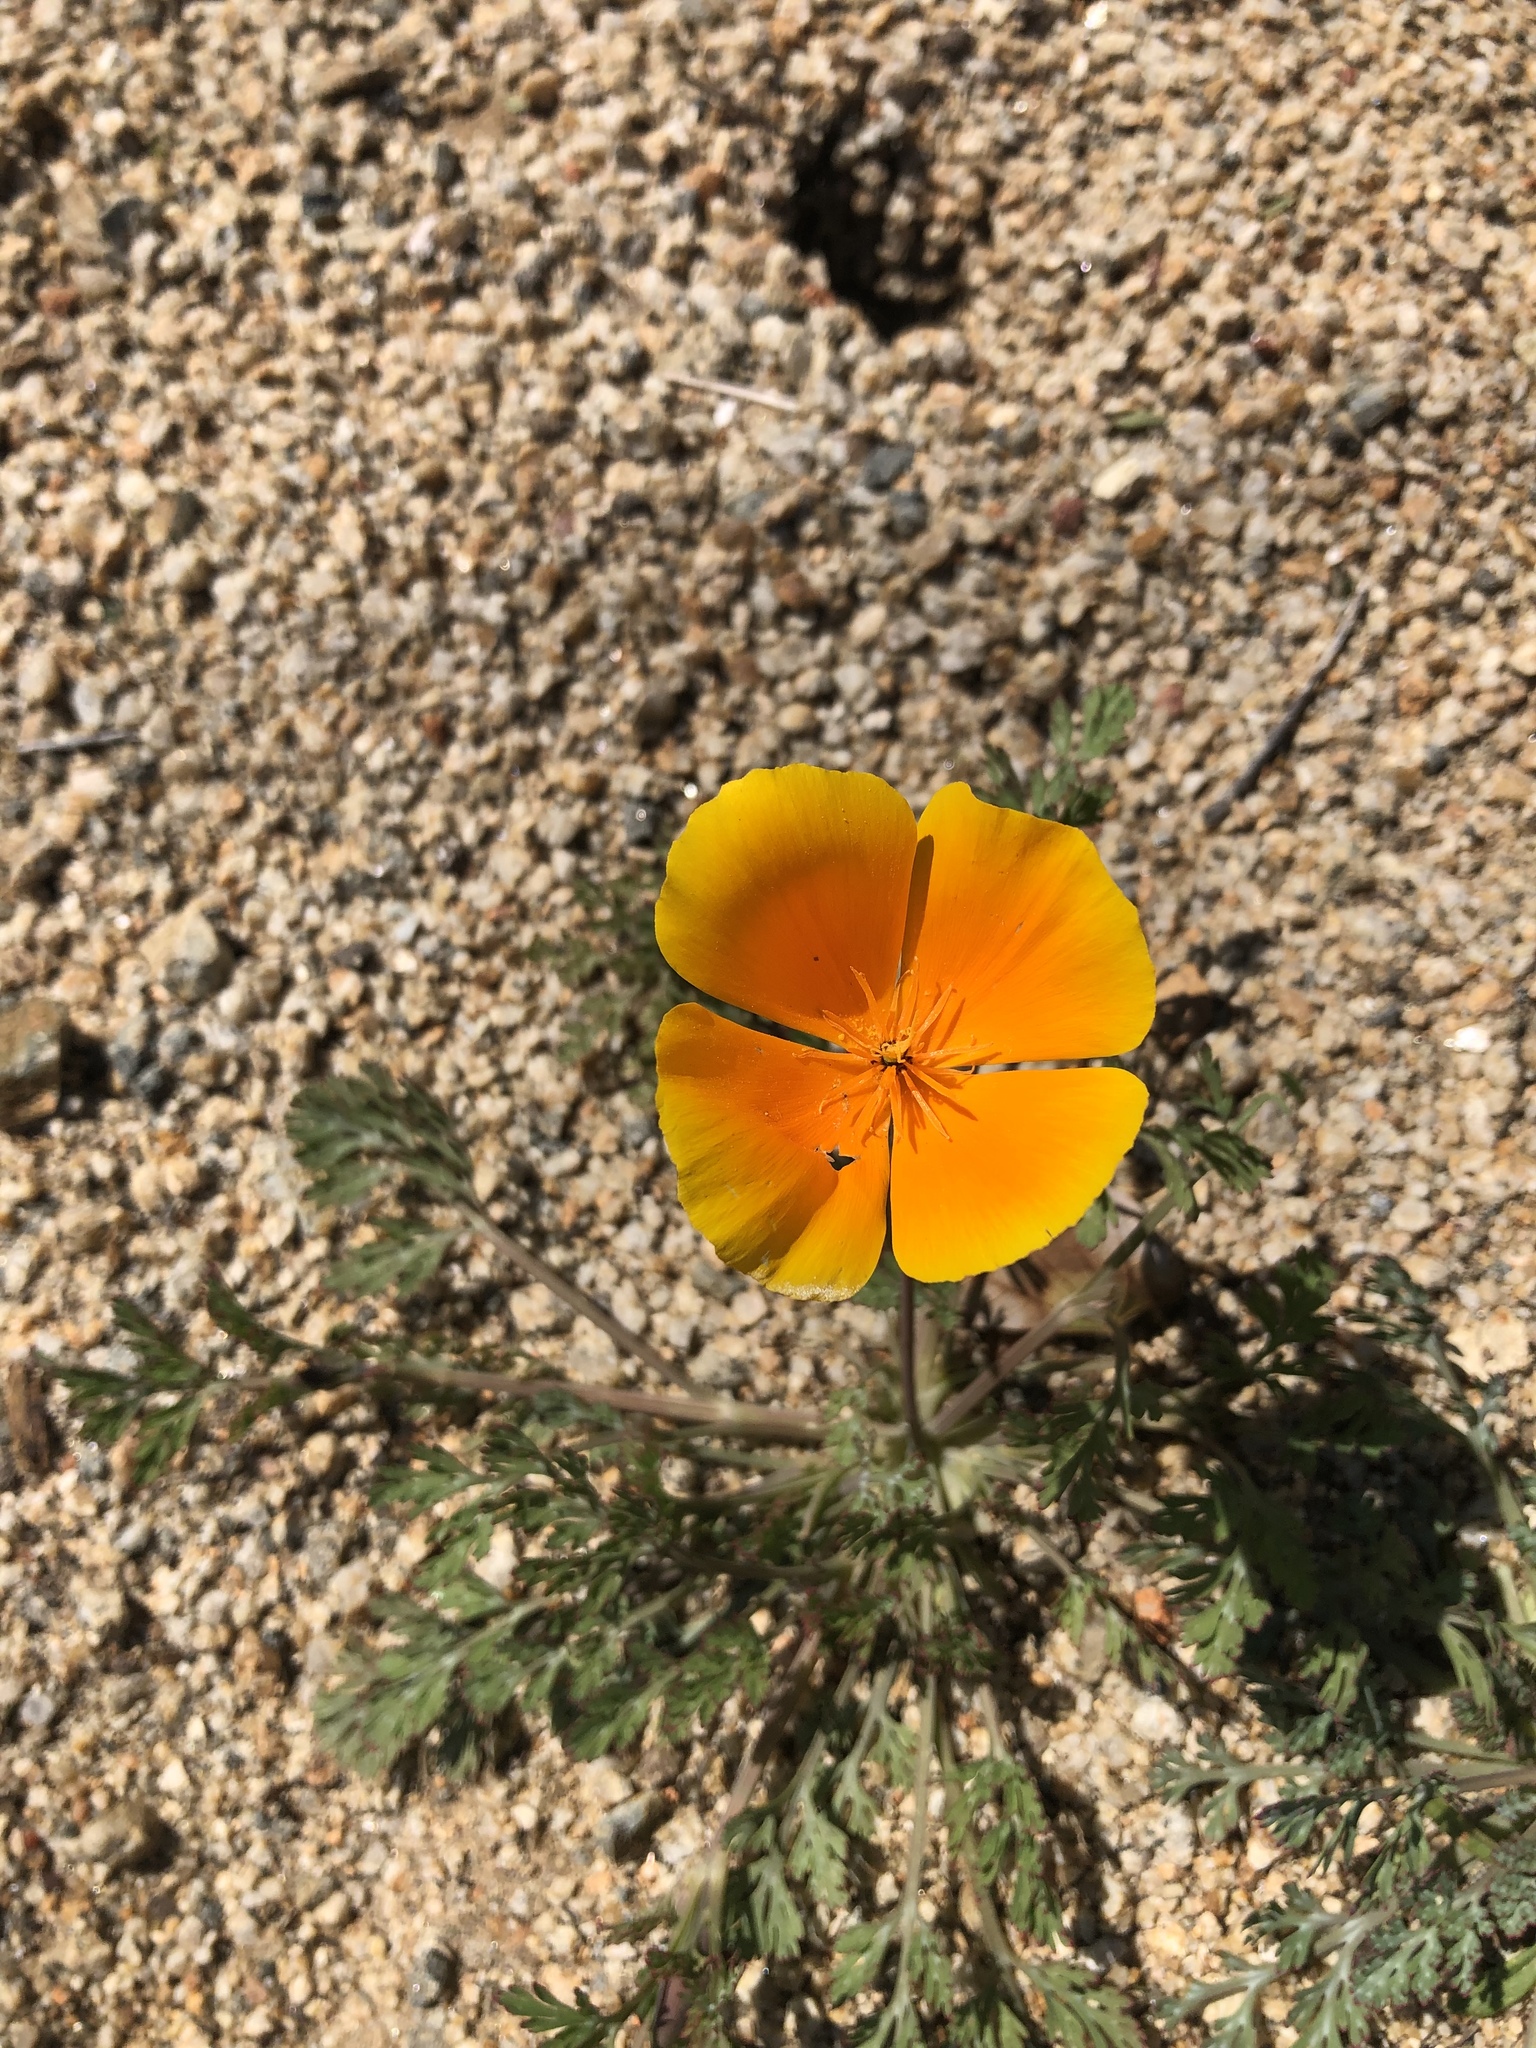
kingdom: Plantae
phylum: Tracheophyta
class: Magnoliopsida
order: Ranunculales
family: Papaveraceae
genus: Eschscholzia
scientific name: Eschscholzia californica
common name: California poppy
